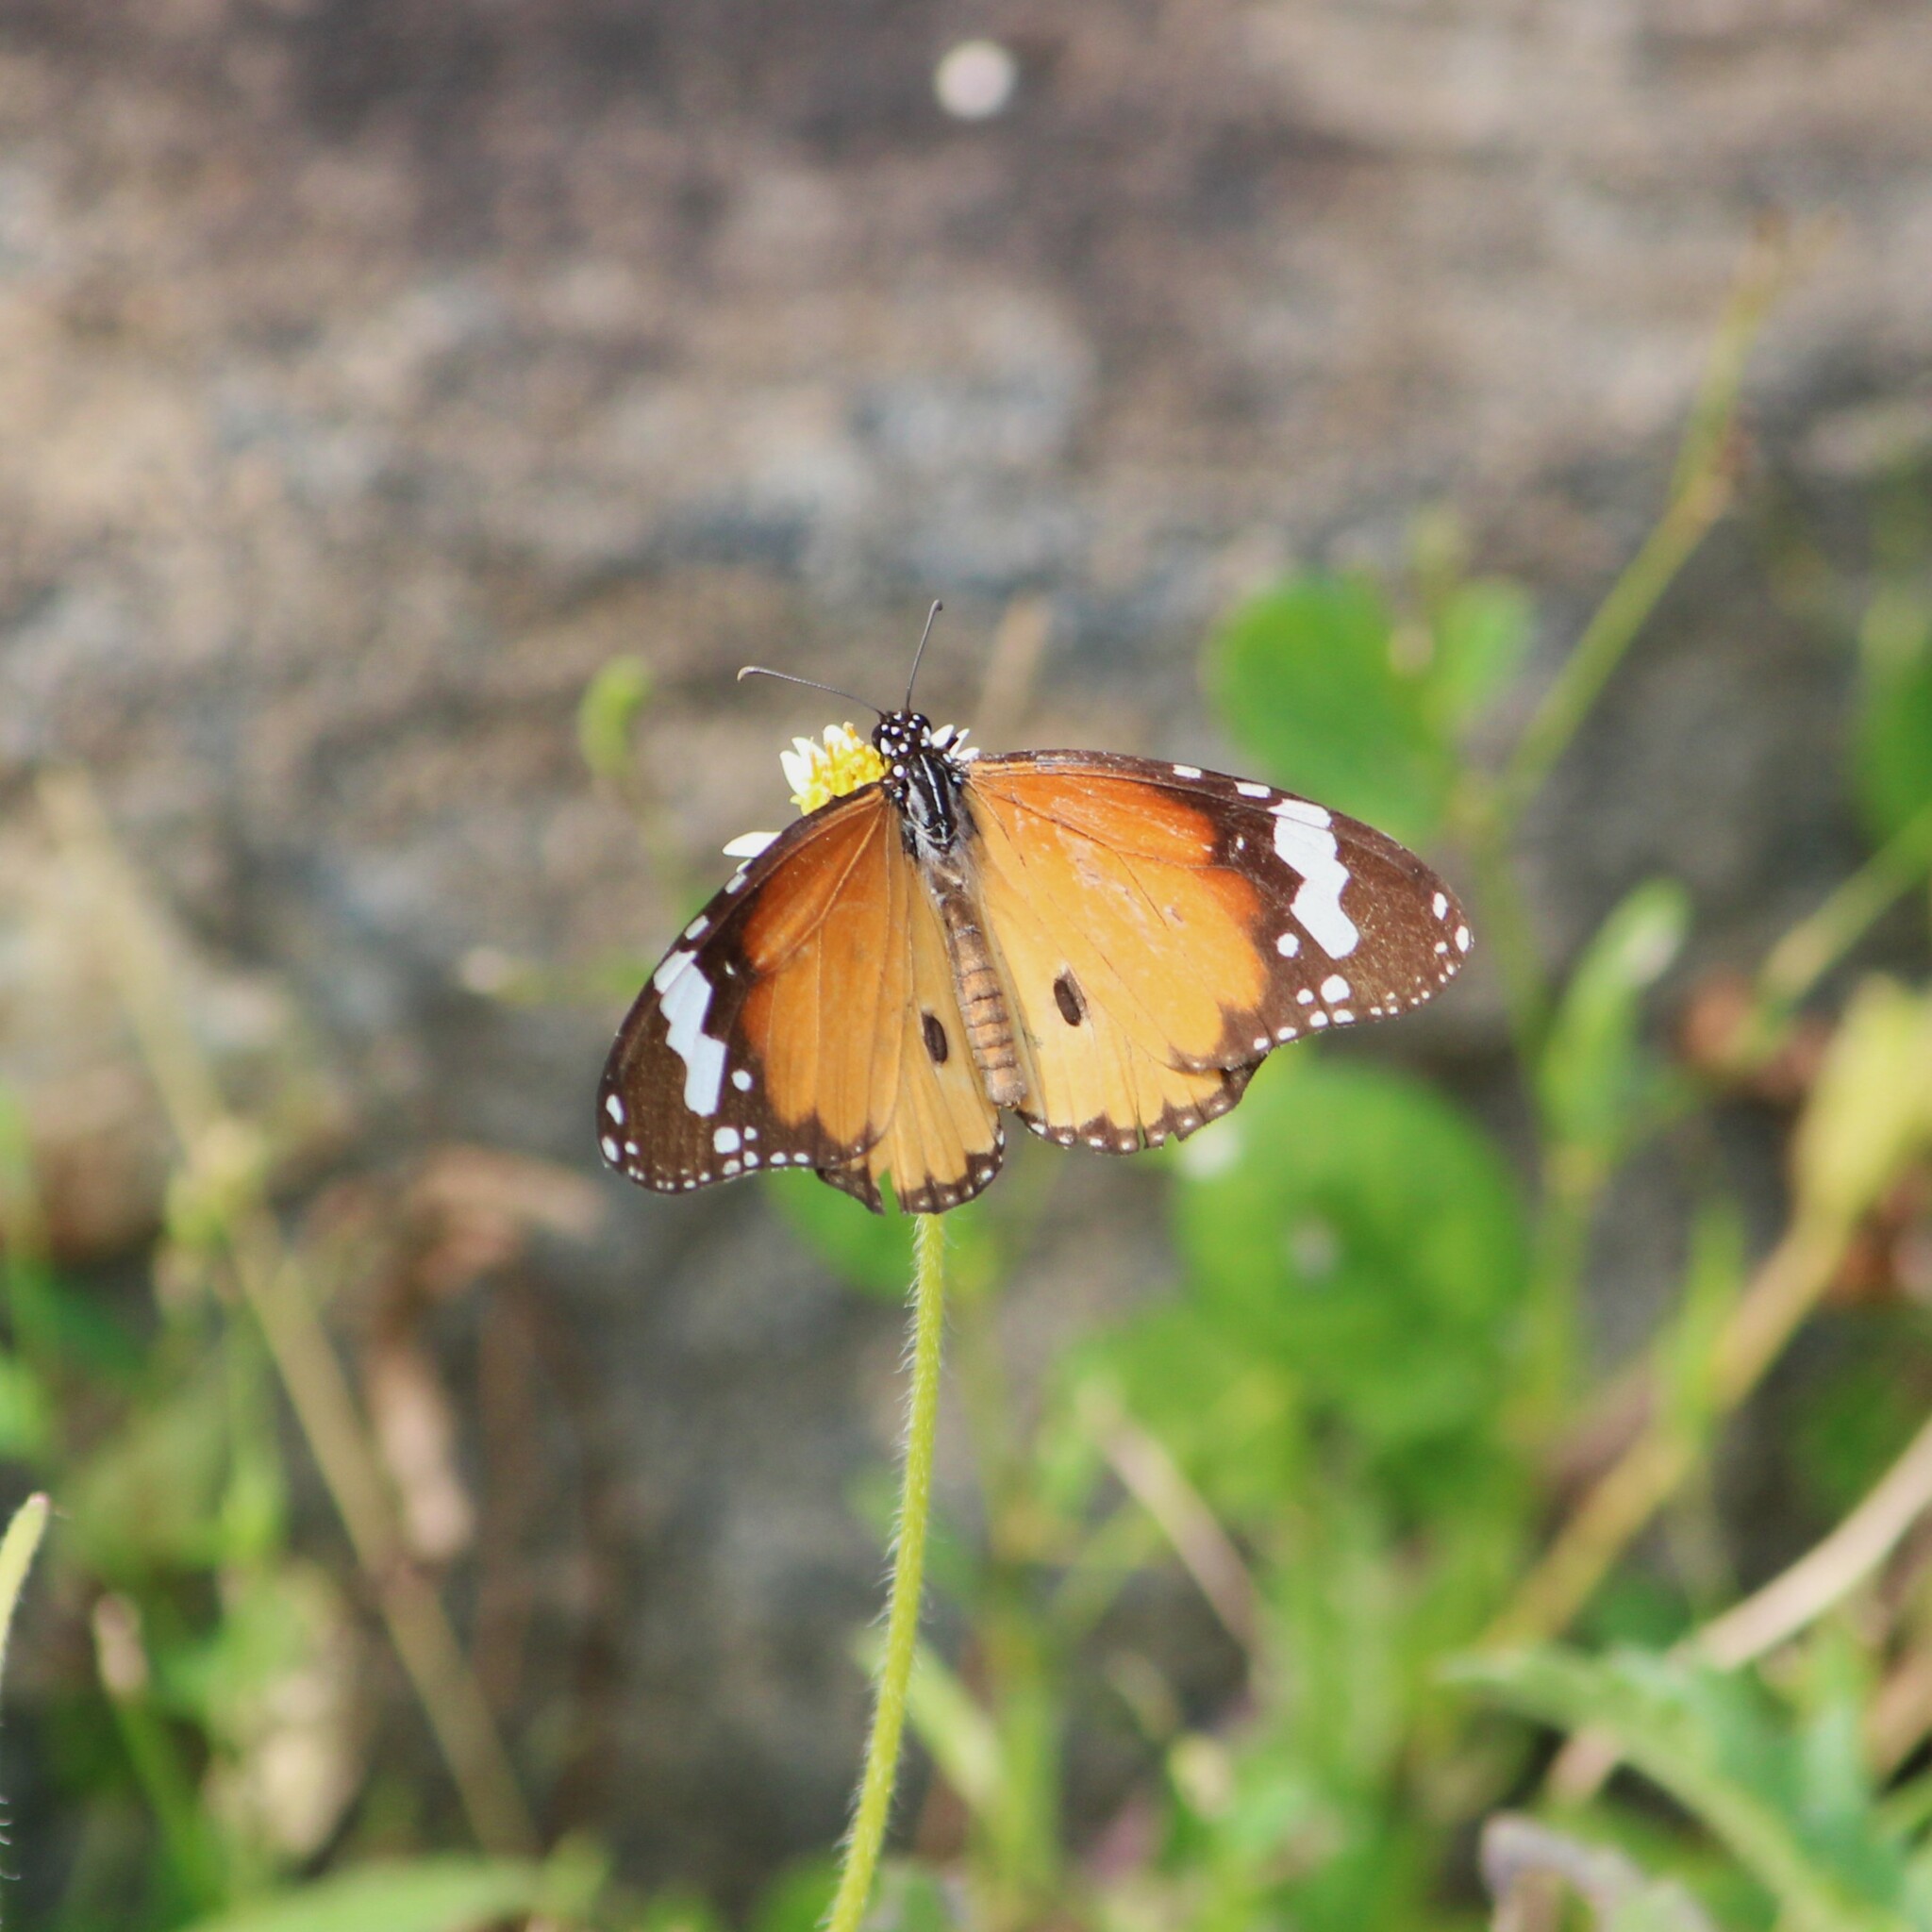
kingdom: Animalia
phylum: Arthropoda
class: Insecta
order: Lepidoptera
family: Nymphalidae
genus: Danaus
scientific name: Danaus chrysippus
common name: Plain tiger
